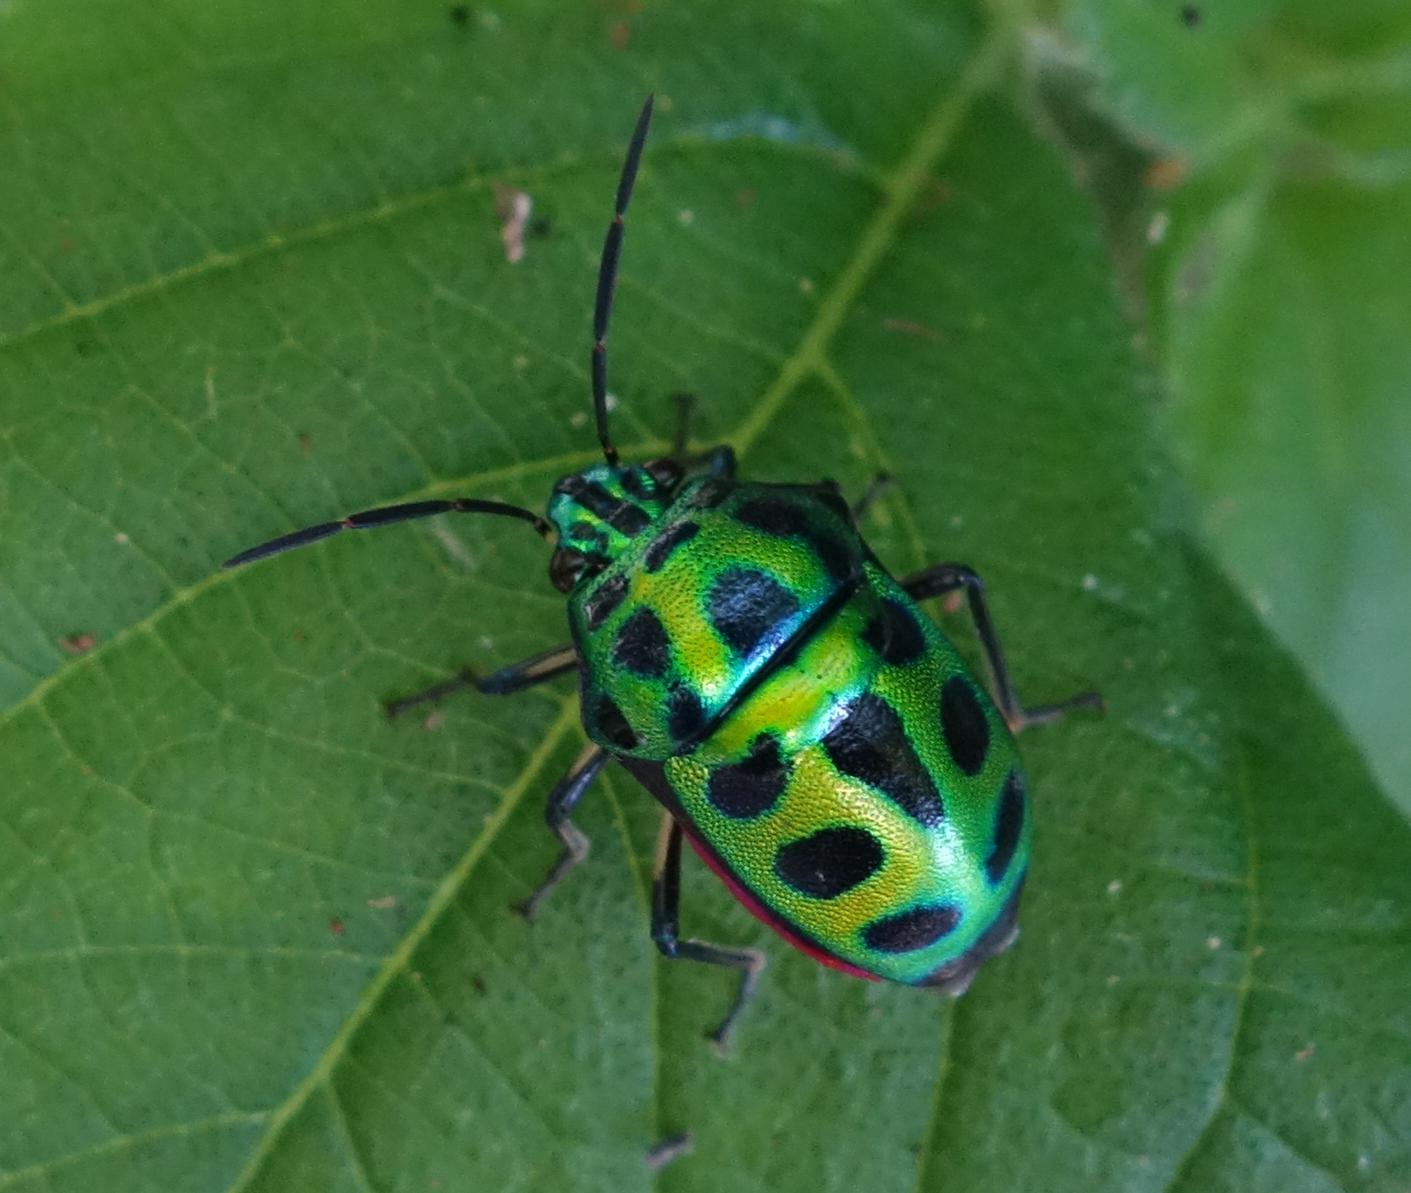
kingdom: Animalia
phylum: Arthropoda
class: Insecta
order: Hemiptera
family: Scutelleridae
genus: Chrysocoris
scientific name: Chrysocoris stollii
